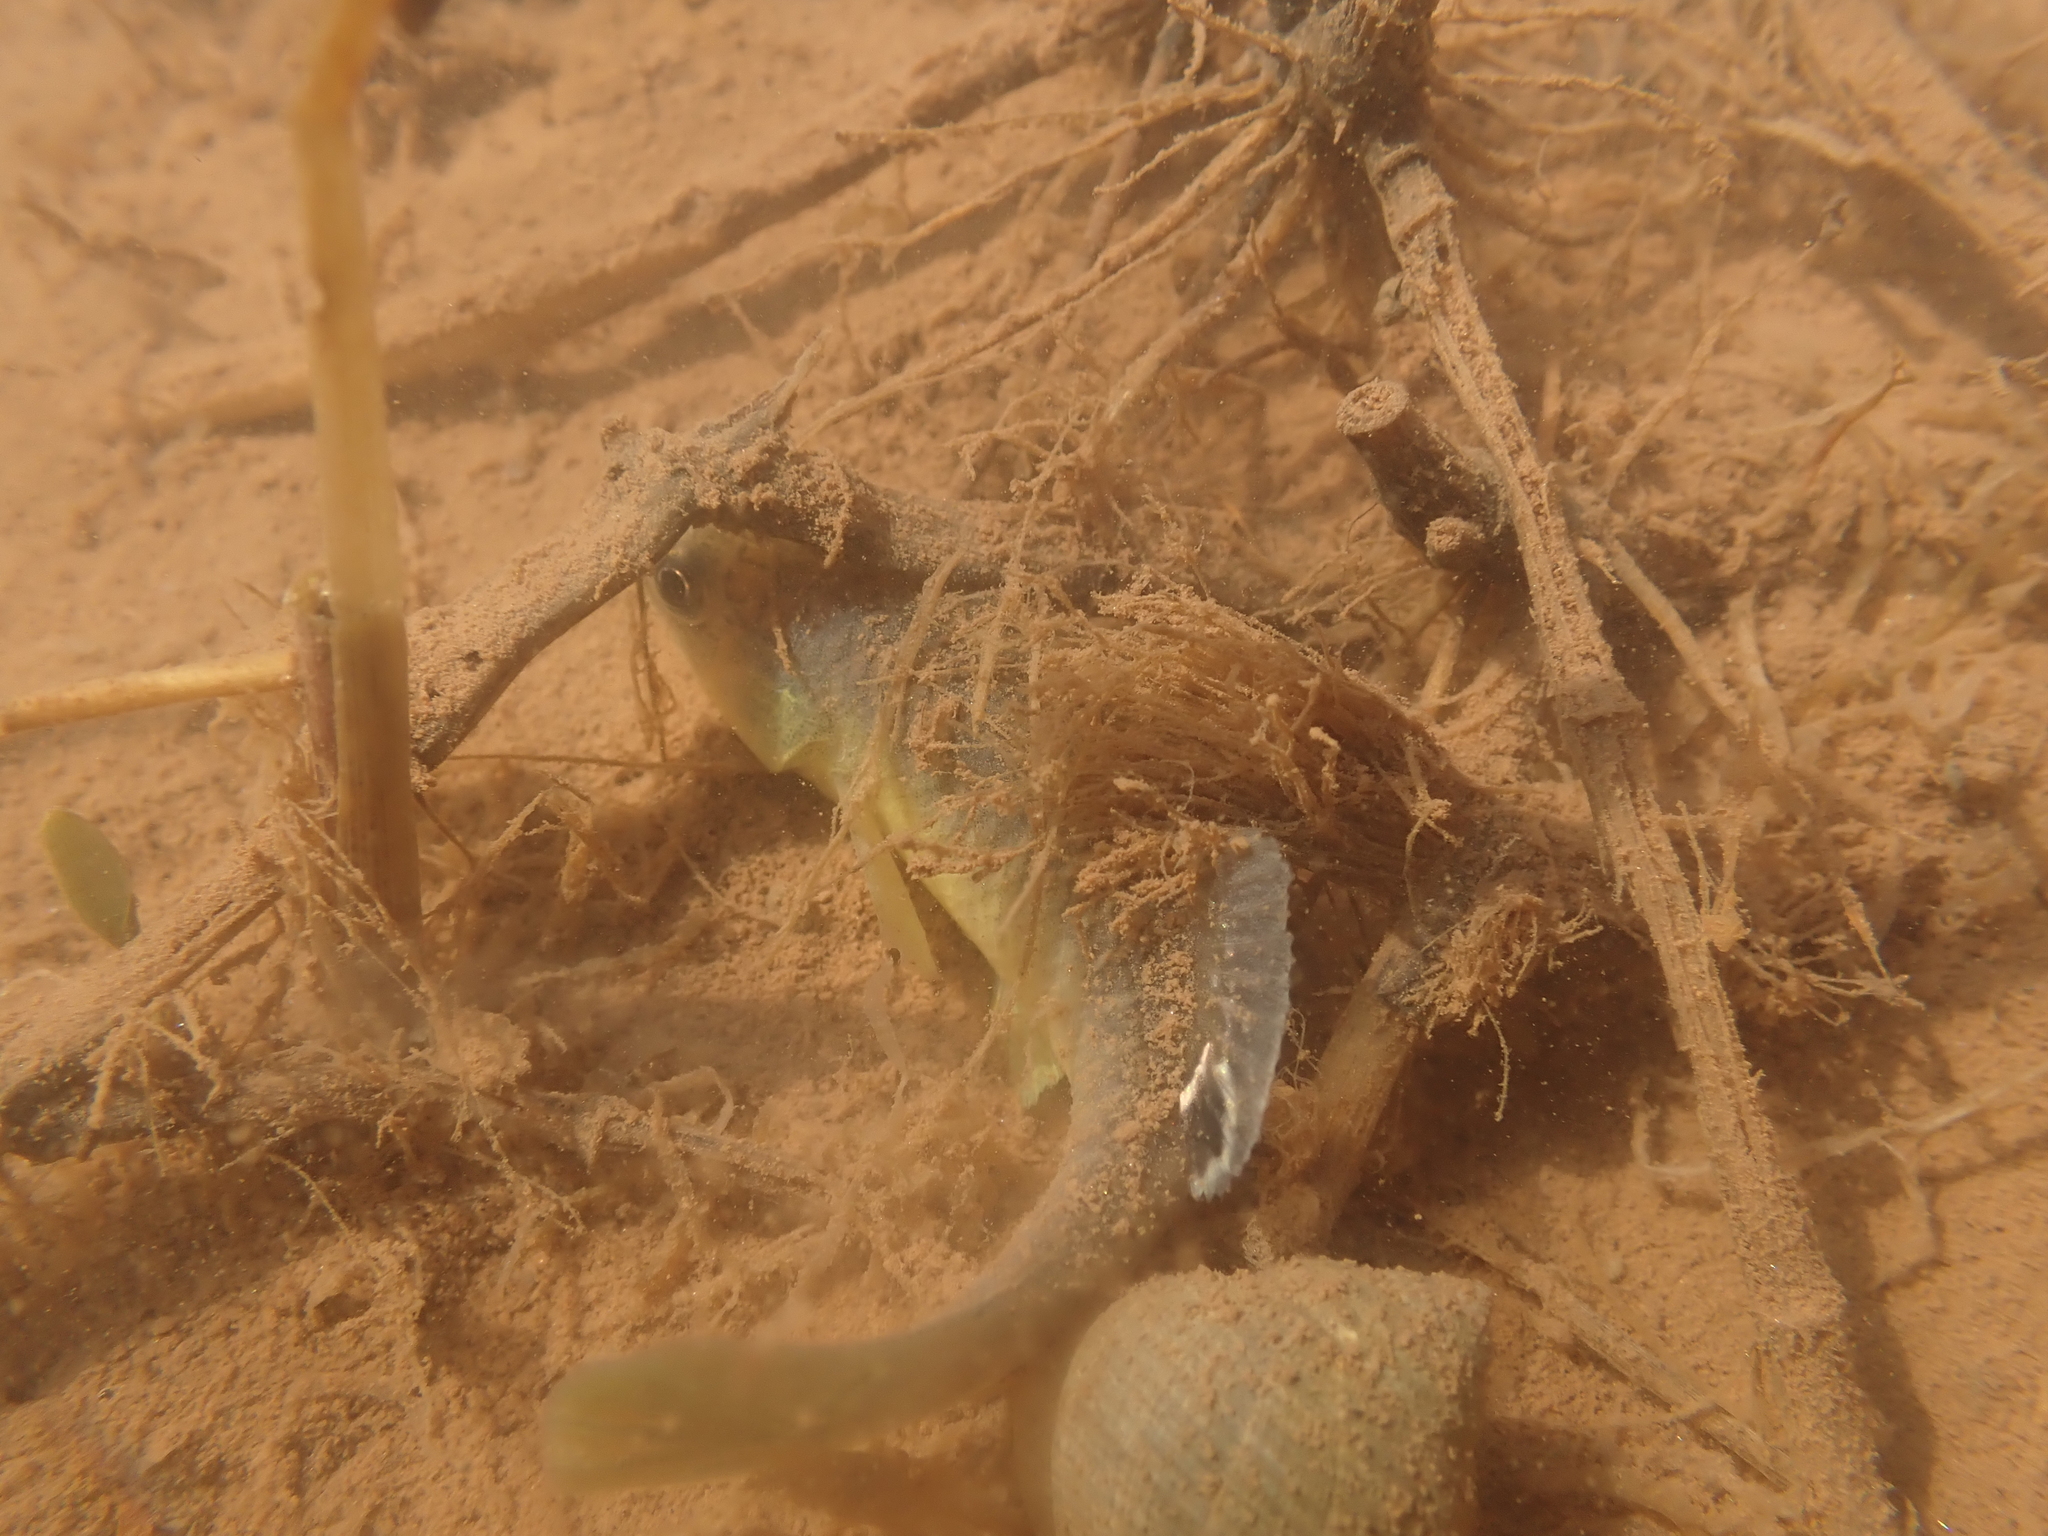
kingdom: Animalia
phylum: Chordata
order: Cyprinodontiformes
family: Fundulidae
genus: Fundulus
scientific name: Fundulus heteroclitus
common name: Mummichog
